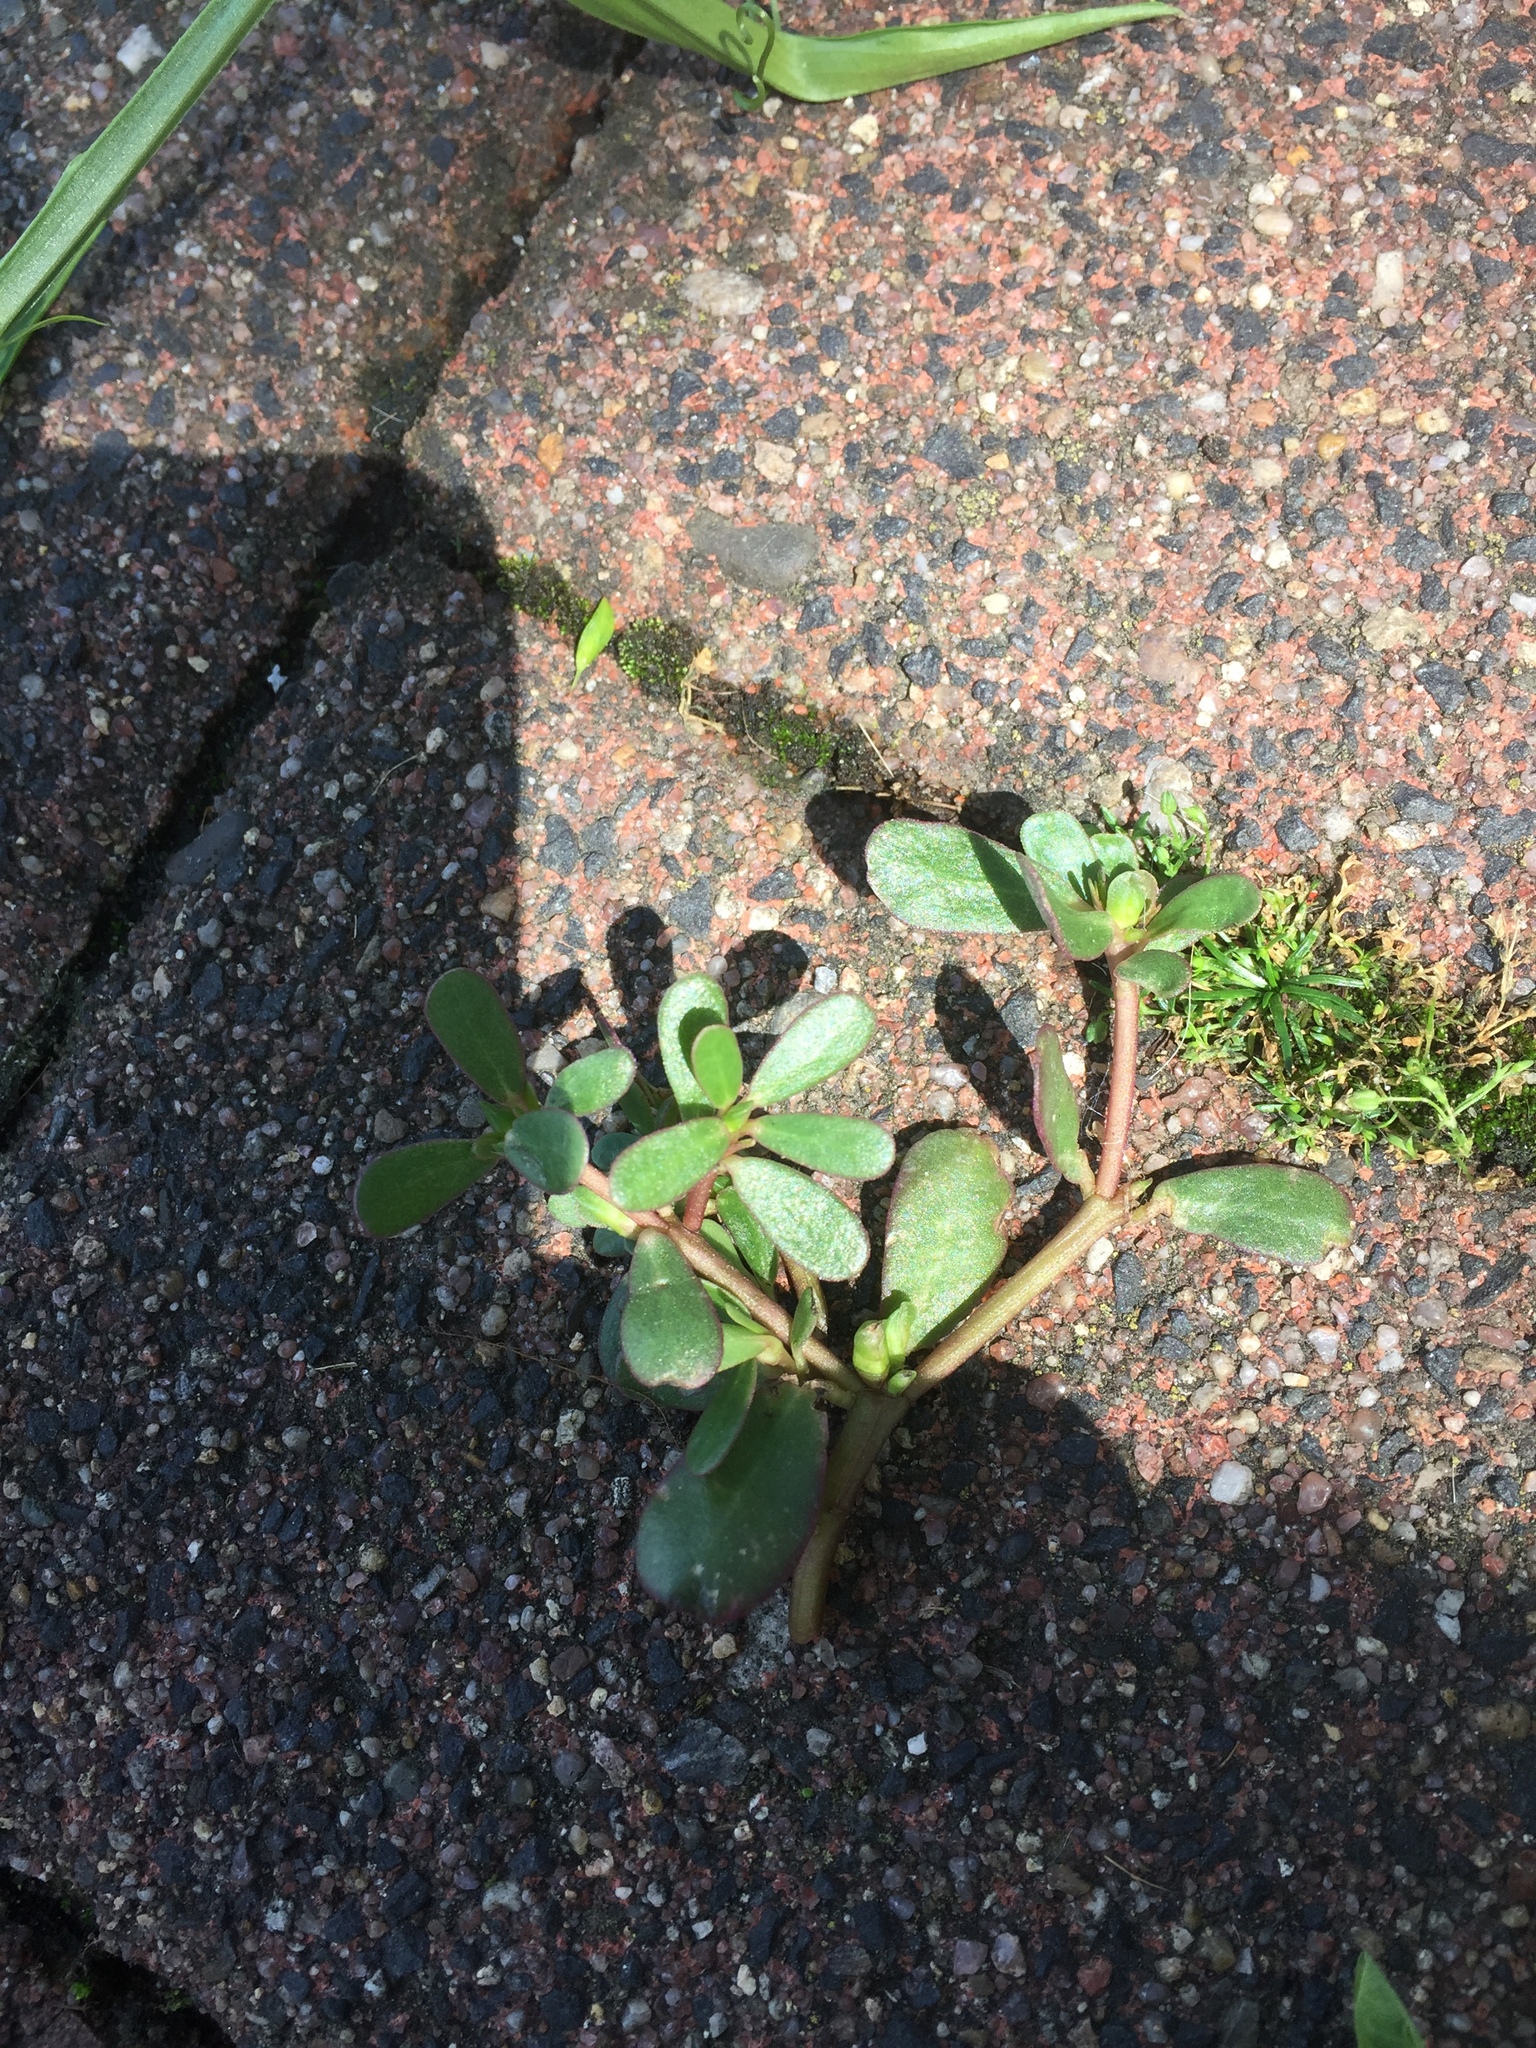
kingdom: Plantae
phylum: Tracheophyta
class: Magnoliopsida
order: Caryophyllales
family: Portulacaceae
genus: Portulaca
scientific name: Portulaca oleracea
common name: Common purslane
